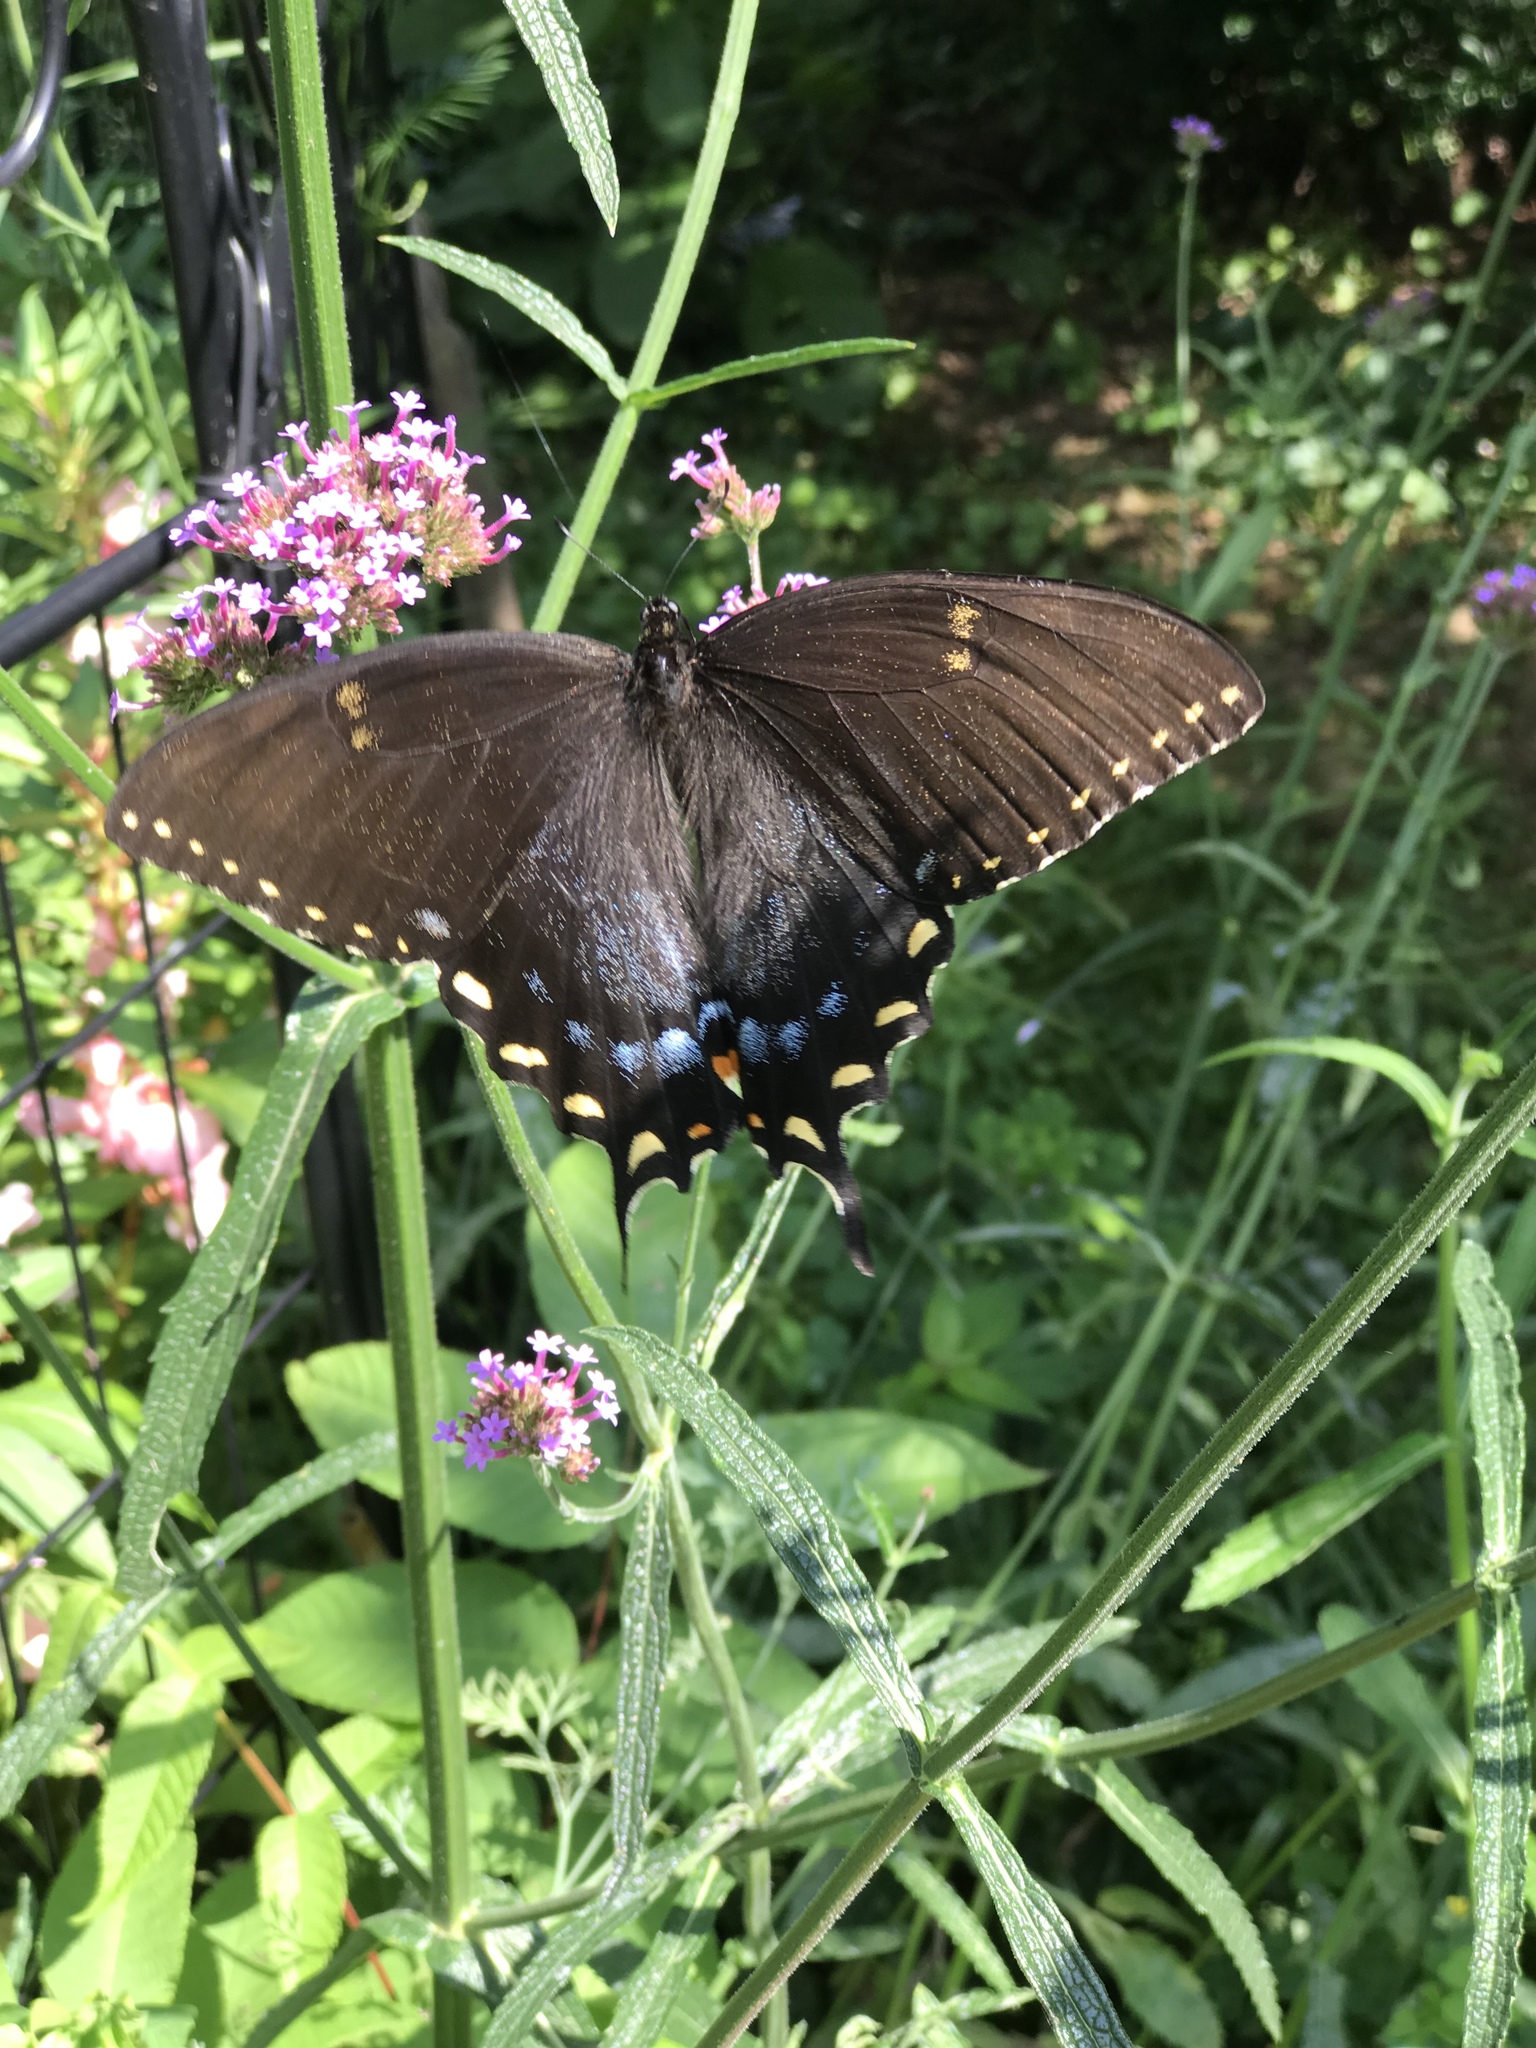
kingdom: Animalia
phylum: Arthropoda
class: Insecta
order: Lepidoptera
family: Papilionidae
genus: Papilio
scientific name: Papilio glaucus
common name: Tiger swallowtail
